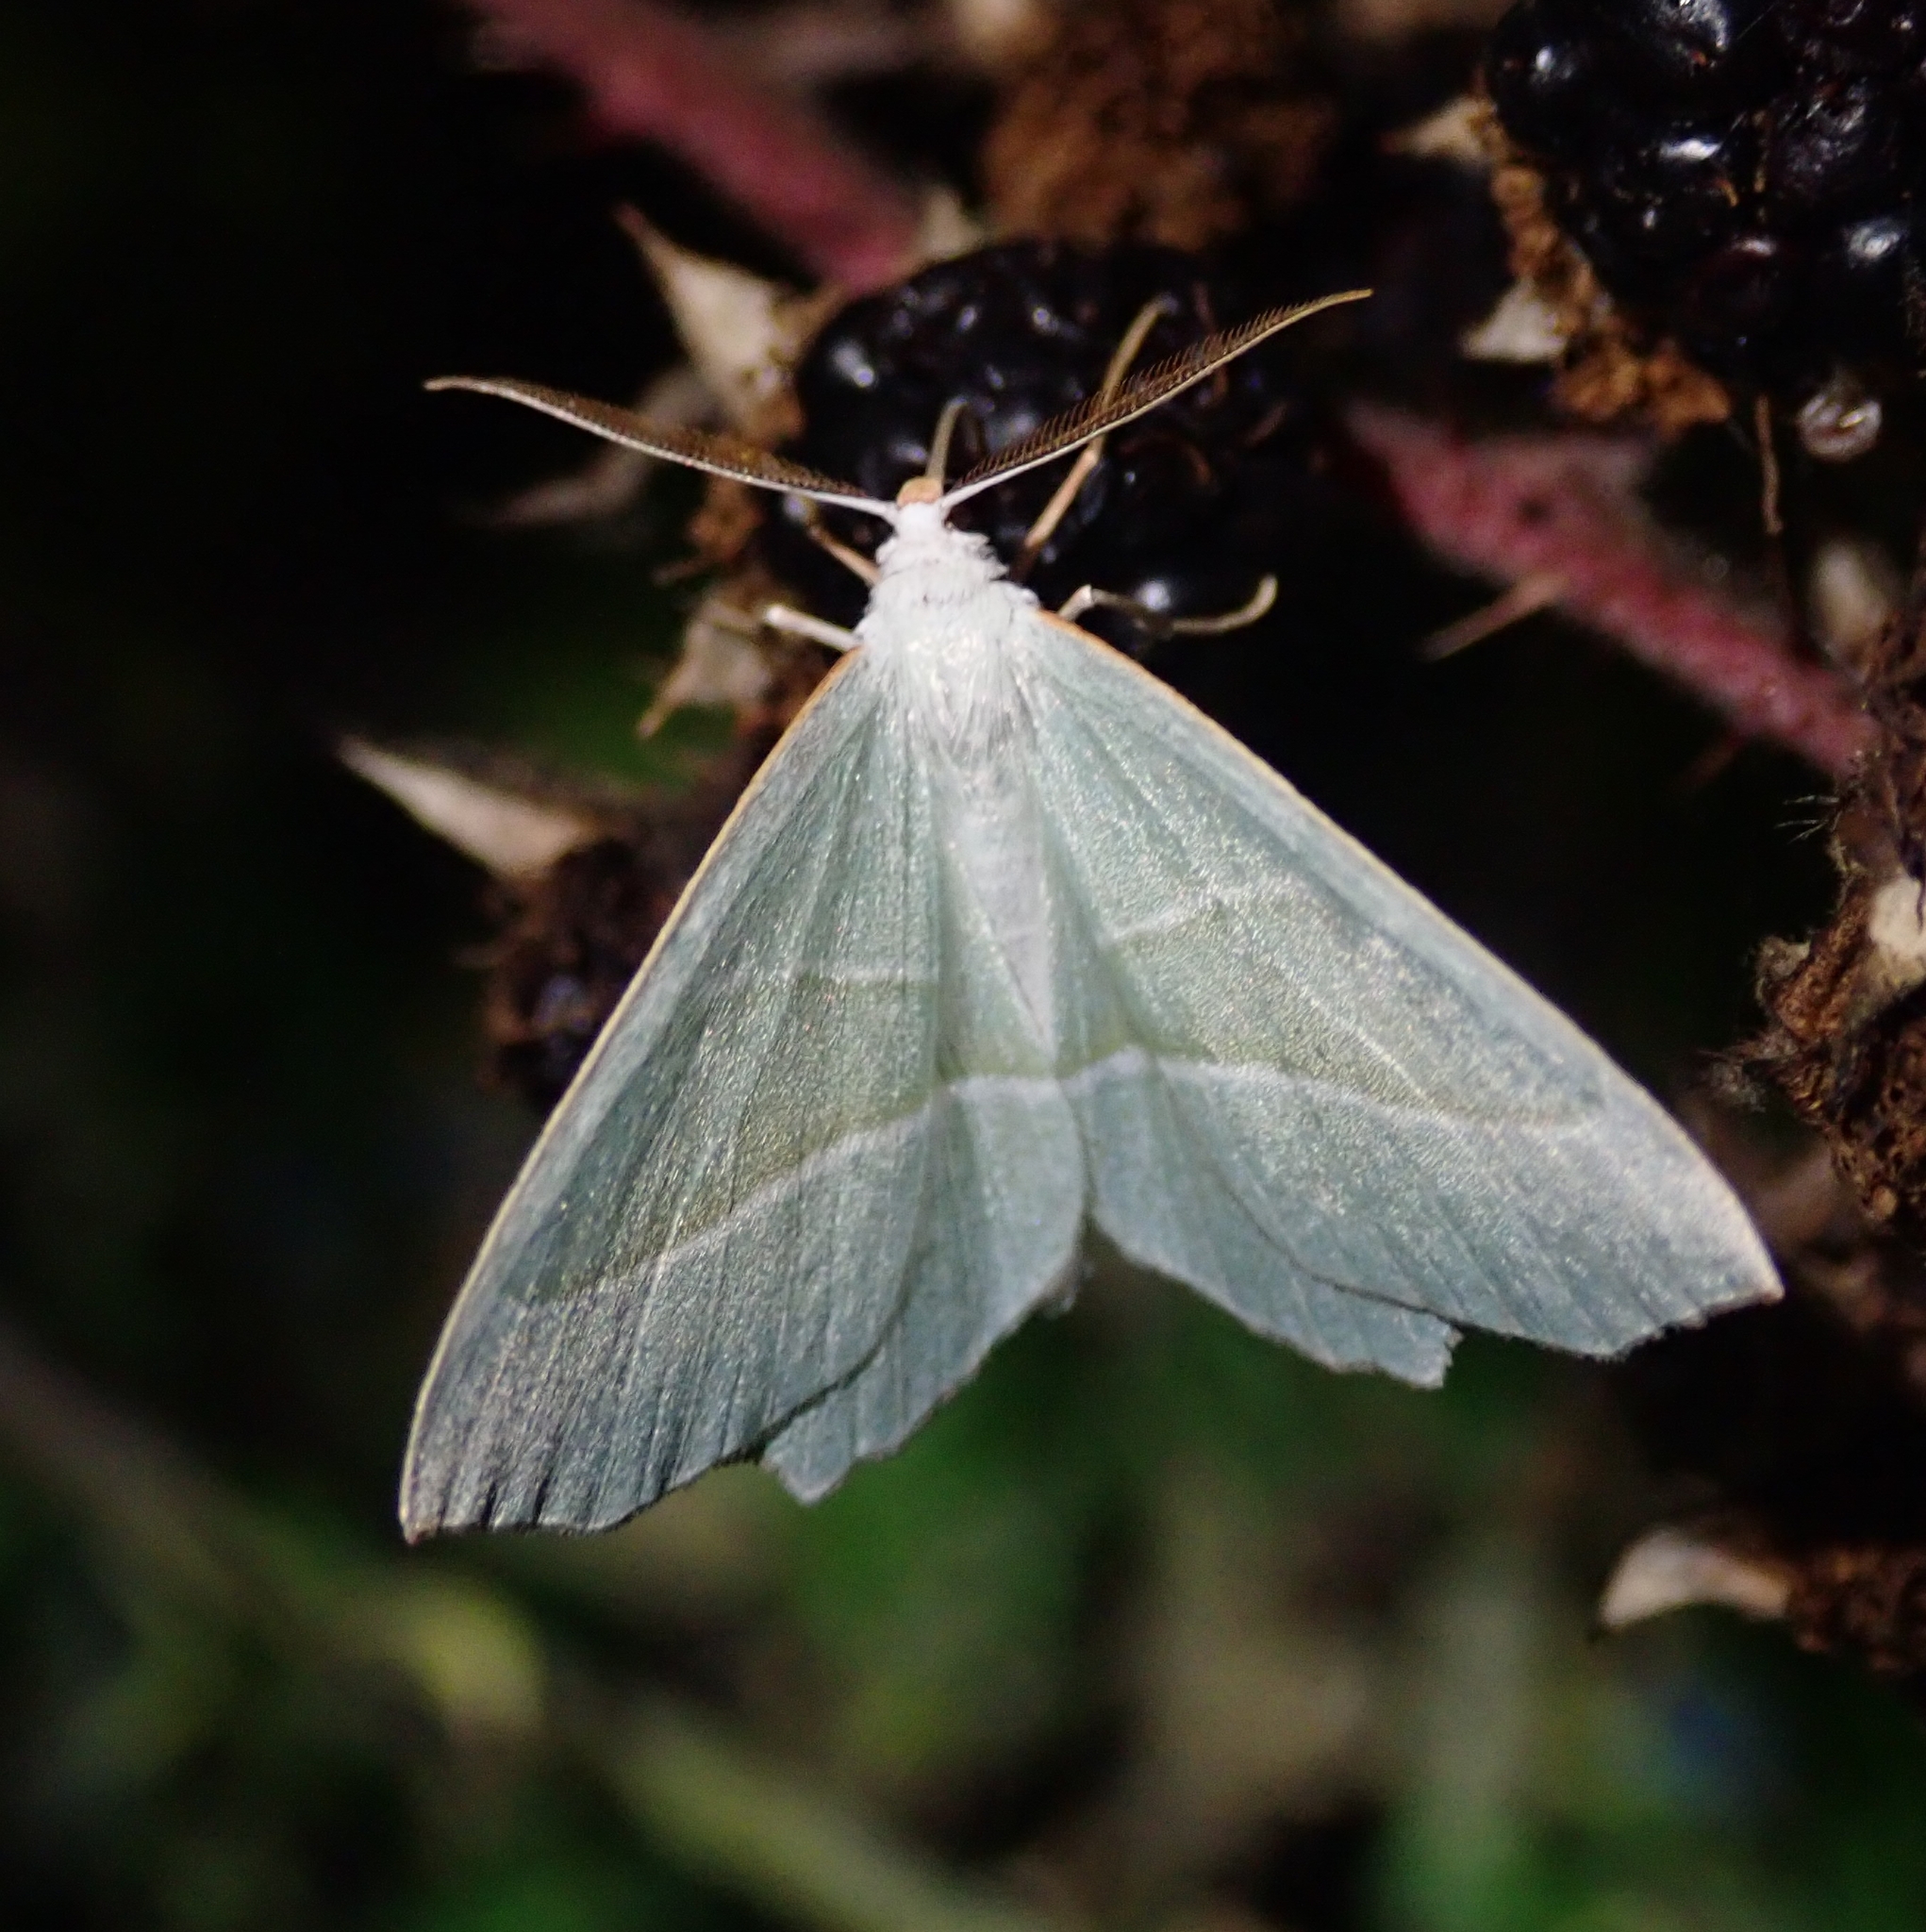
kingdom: Animalia
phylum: Arthropoda
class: Insecta
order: Lepidoptera
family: Geometridae
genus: Campaea
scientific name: Campaea margaritaria
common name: Light emerald
